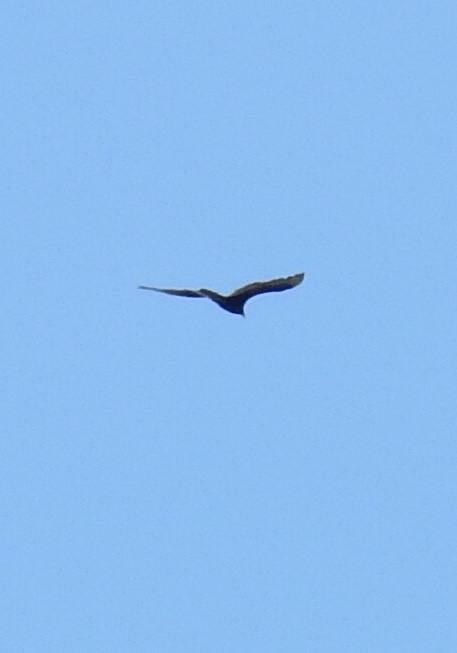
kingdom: Animalia
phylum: Chordata
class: Aves
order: Accipitriformes
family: Cathartidae
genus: Cathartes
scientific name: Cathartes aura
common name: Turkey vulture
